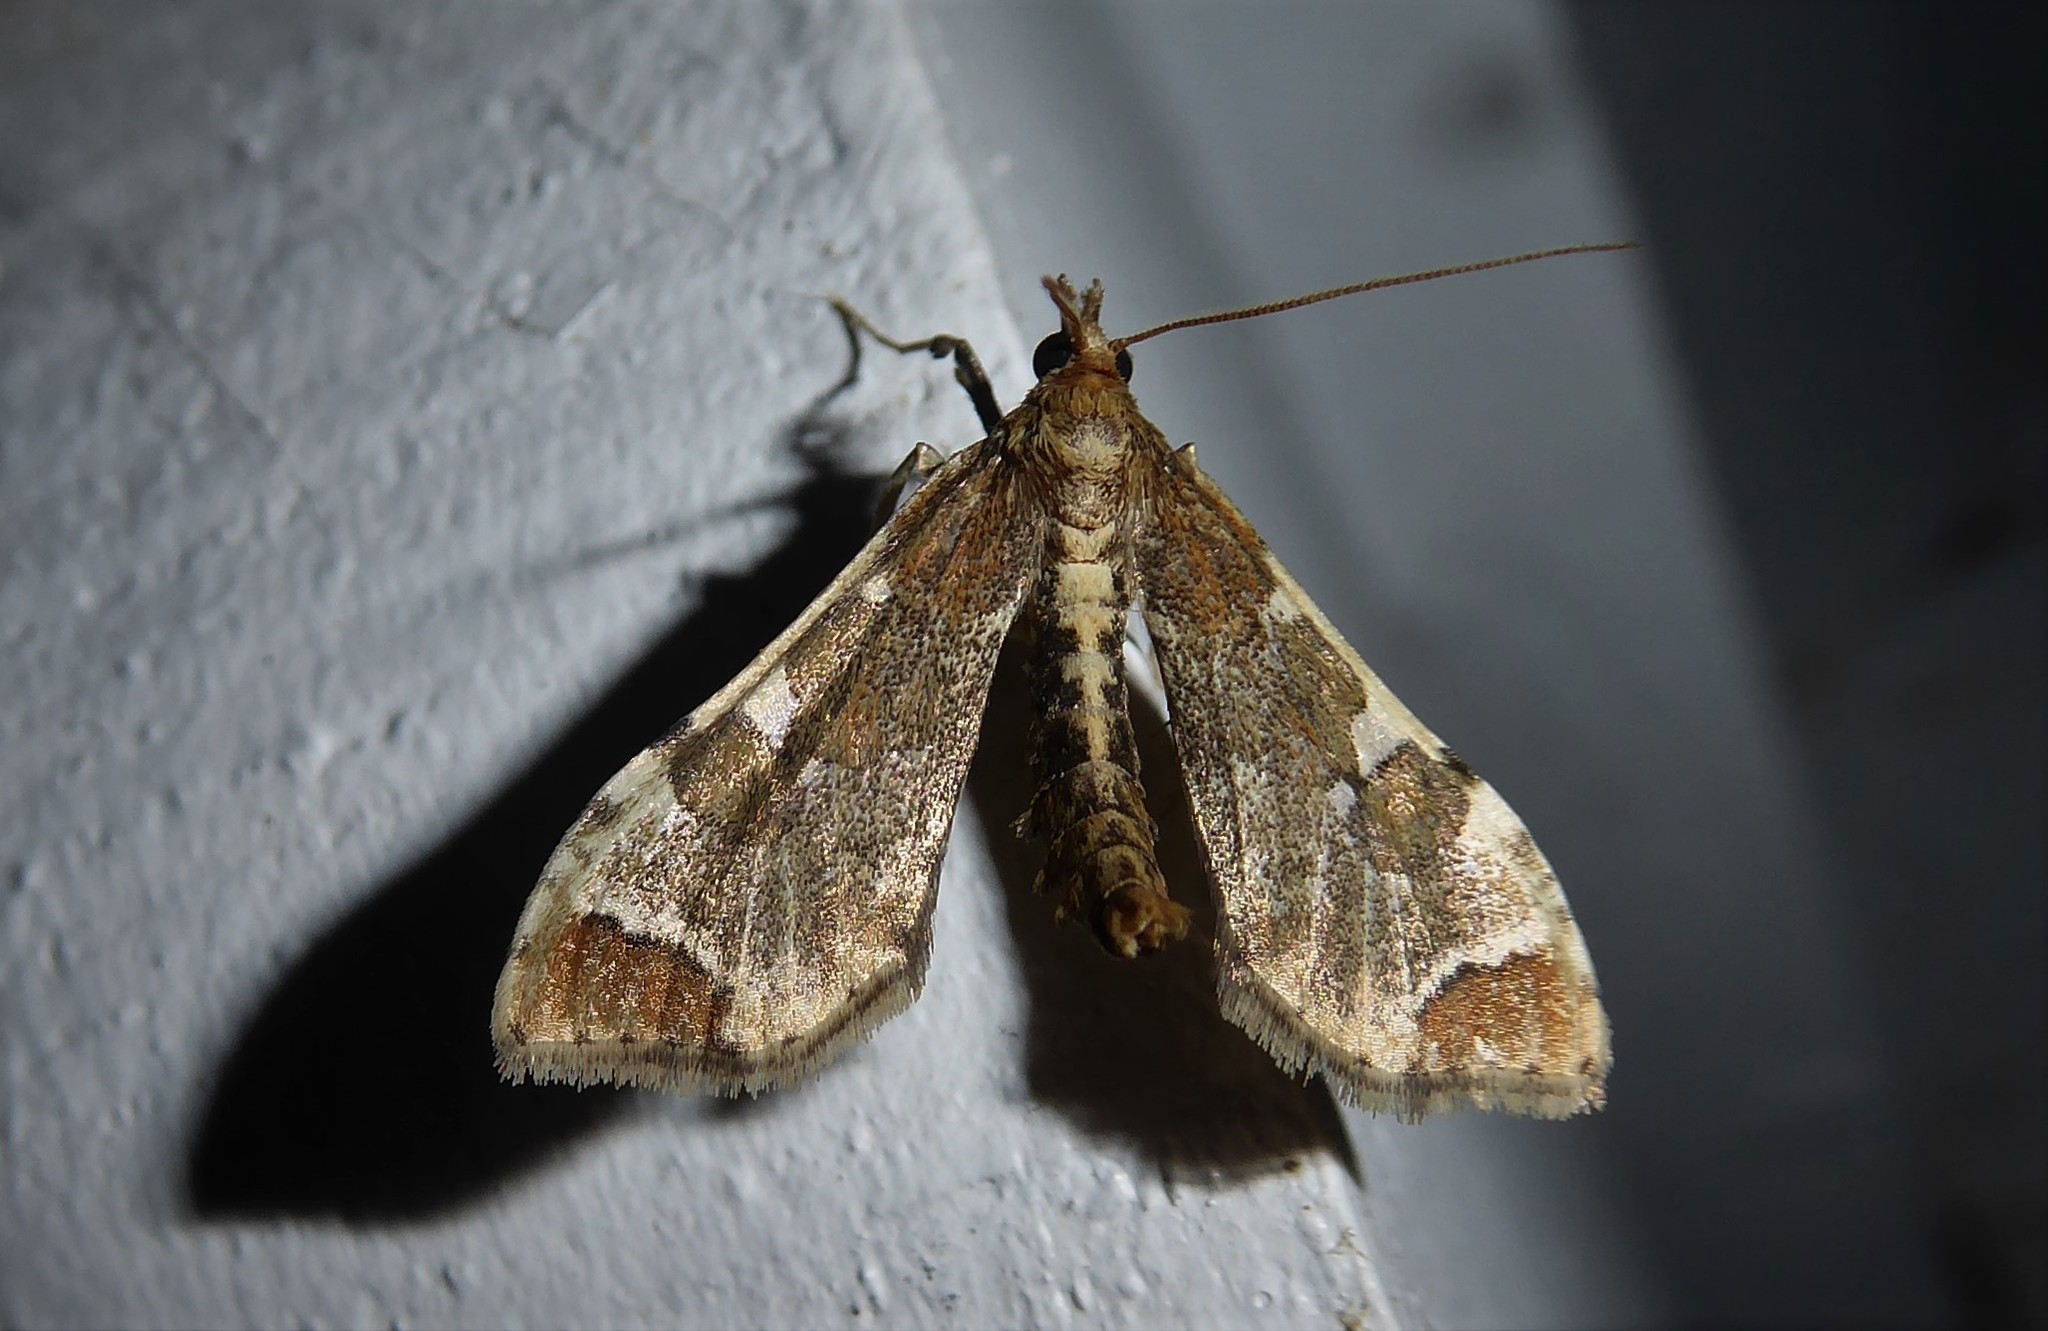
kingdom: Animalia
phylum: Arthropoda
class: Insecta
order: Lepidoptera
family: Crambidae
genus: Sceliodes
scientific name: Sceliodes cordalis
